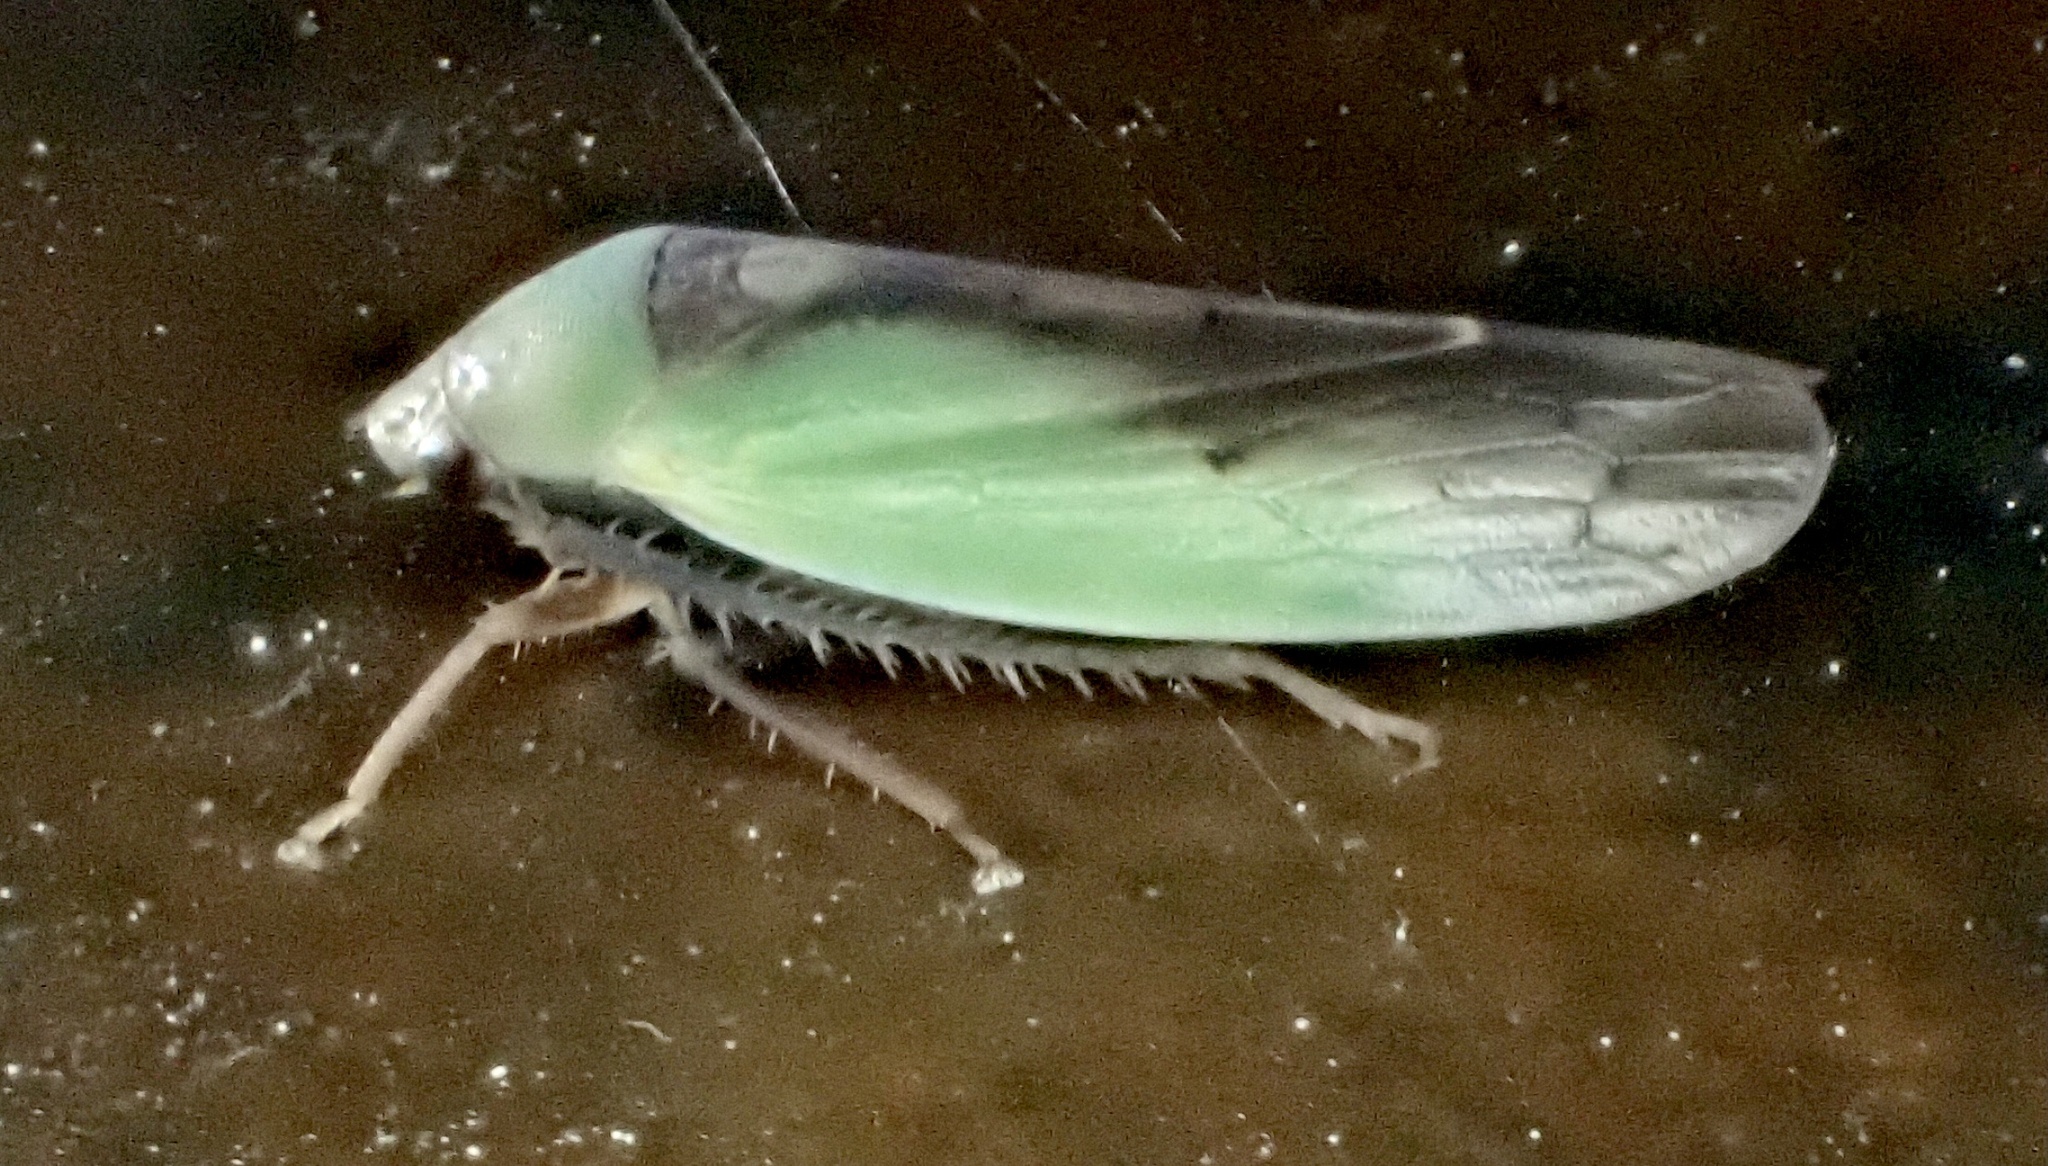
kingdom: Animalia
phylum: Arthropoda
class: Insecta
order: Hemiptera
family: Cicadellidae
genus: Ponana
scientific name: Ponana pectoralis
